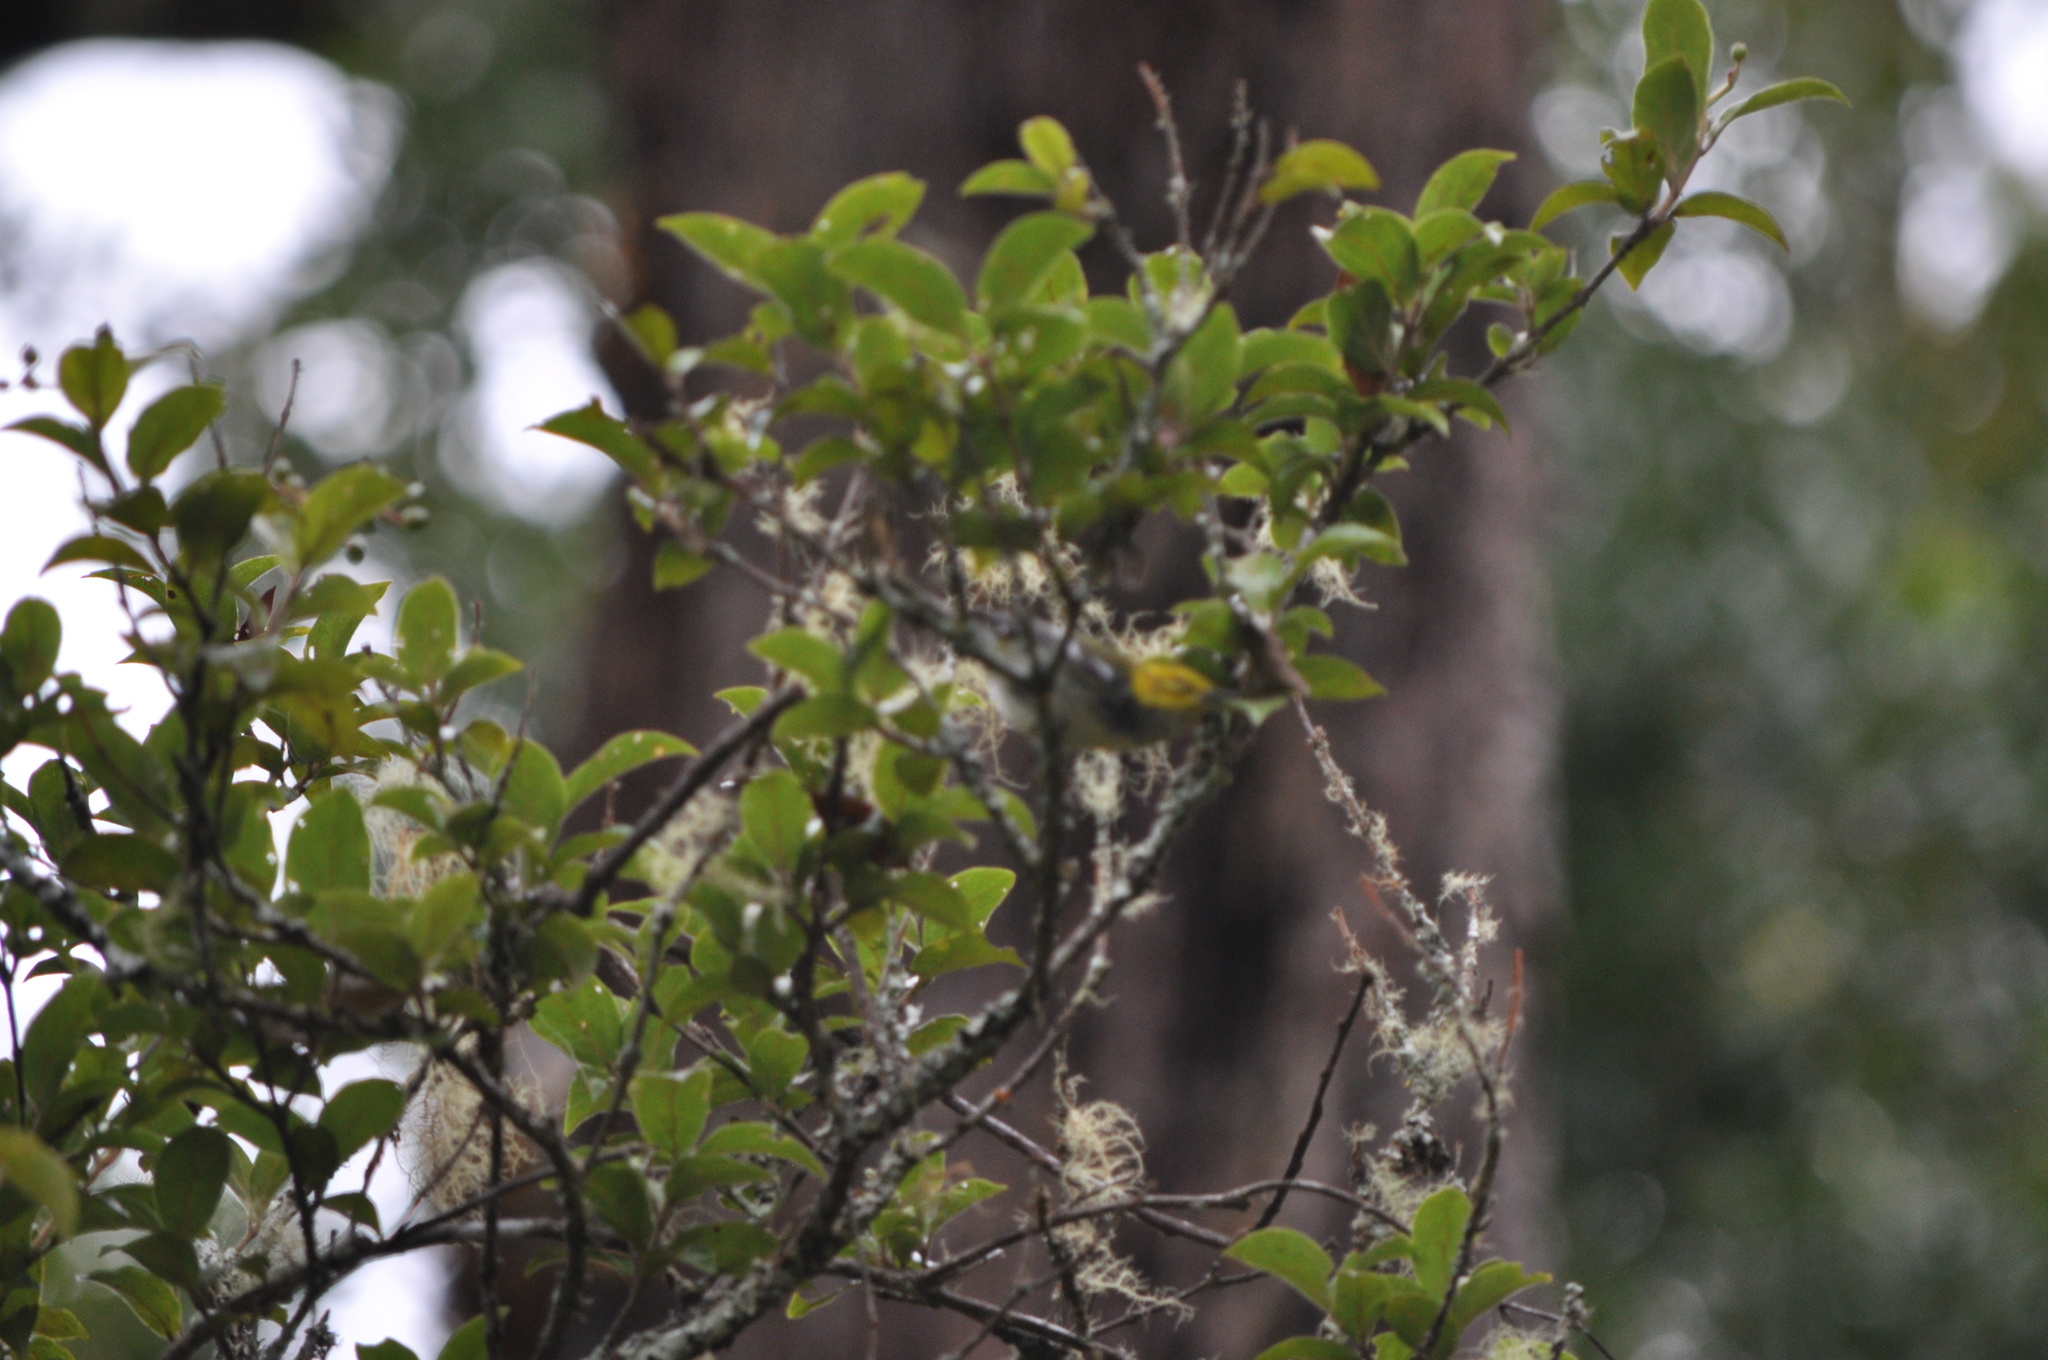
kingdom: Animalia
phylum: Chordata
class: Aves
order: Passeriformes
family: Parulidae
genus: Setophaga
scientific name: Setophaga virens
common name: Black-throated green warbler
